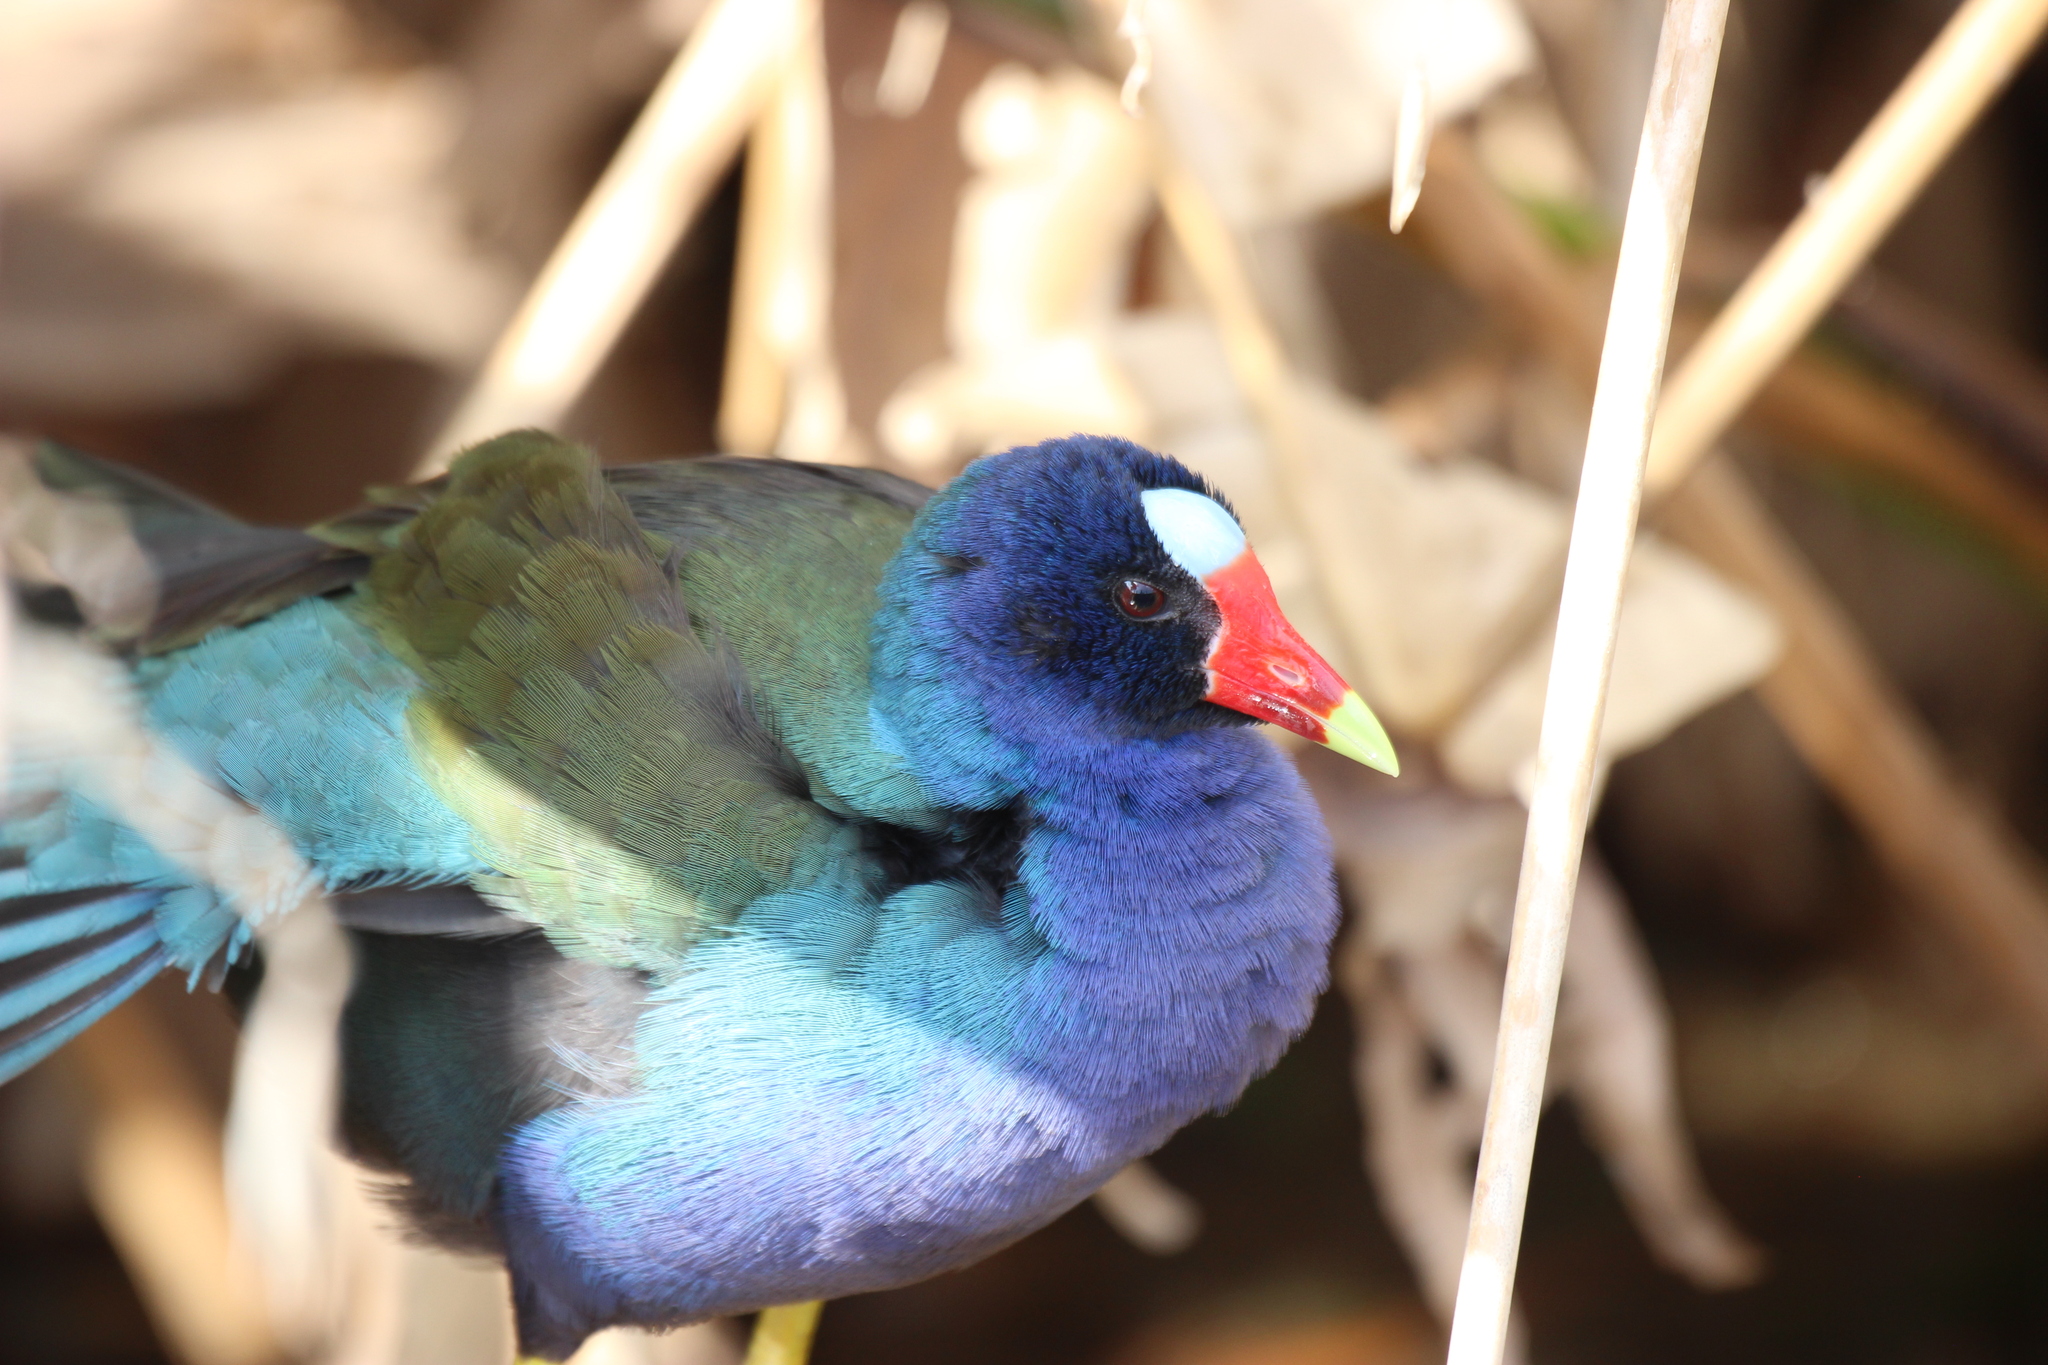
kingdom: Animalia
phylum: Chordata
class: Aves
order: Gruiformes
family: Rallidae
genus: Porphyrio
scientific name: Porphyrio martinica
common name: Purple gallinule
